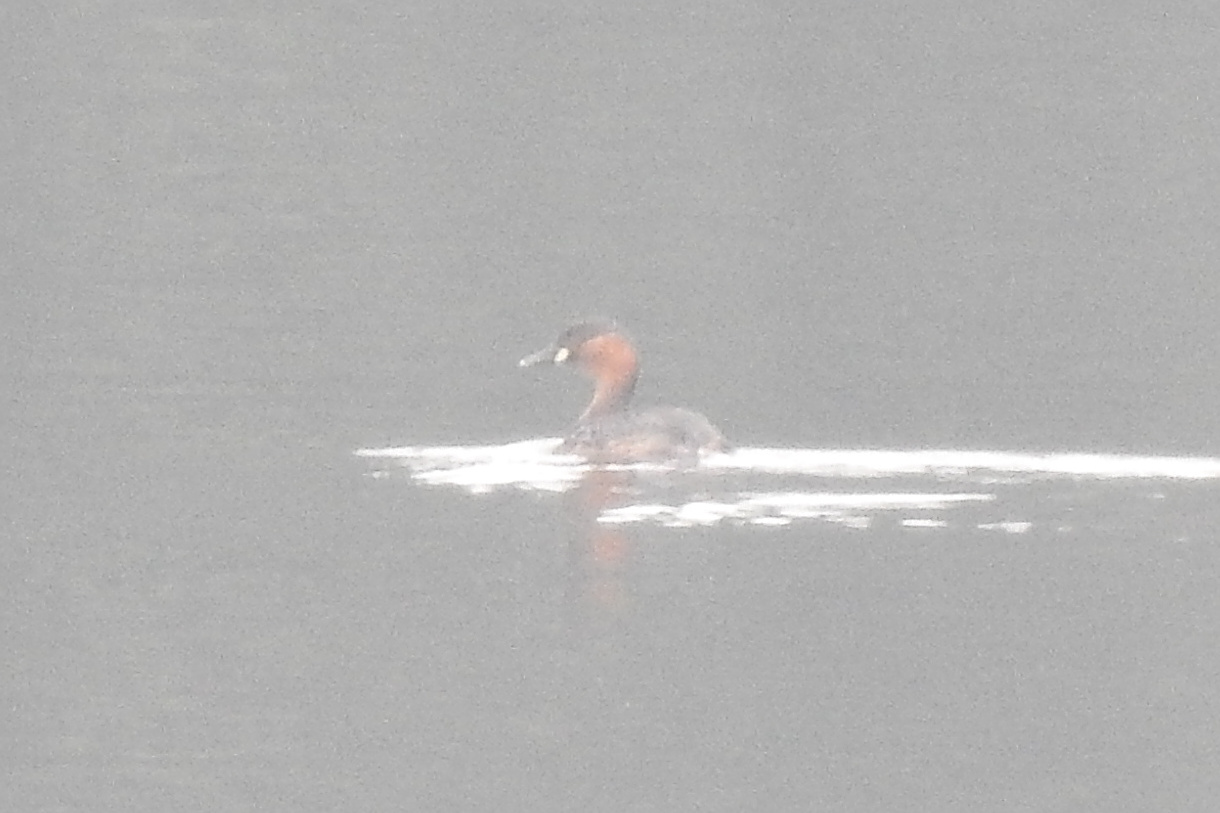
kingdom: Animalia
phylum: Chordata
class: Aves
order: Podicipediformes
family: Podicipedidae
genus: Tachybaptus
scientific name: Tachybaptus ruficollis
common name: Little grebe
